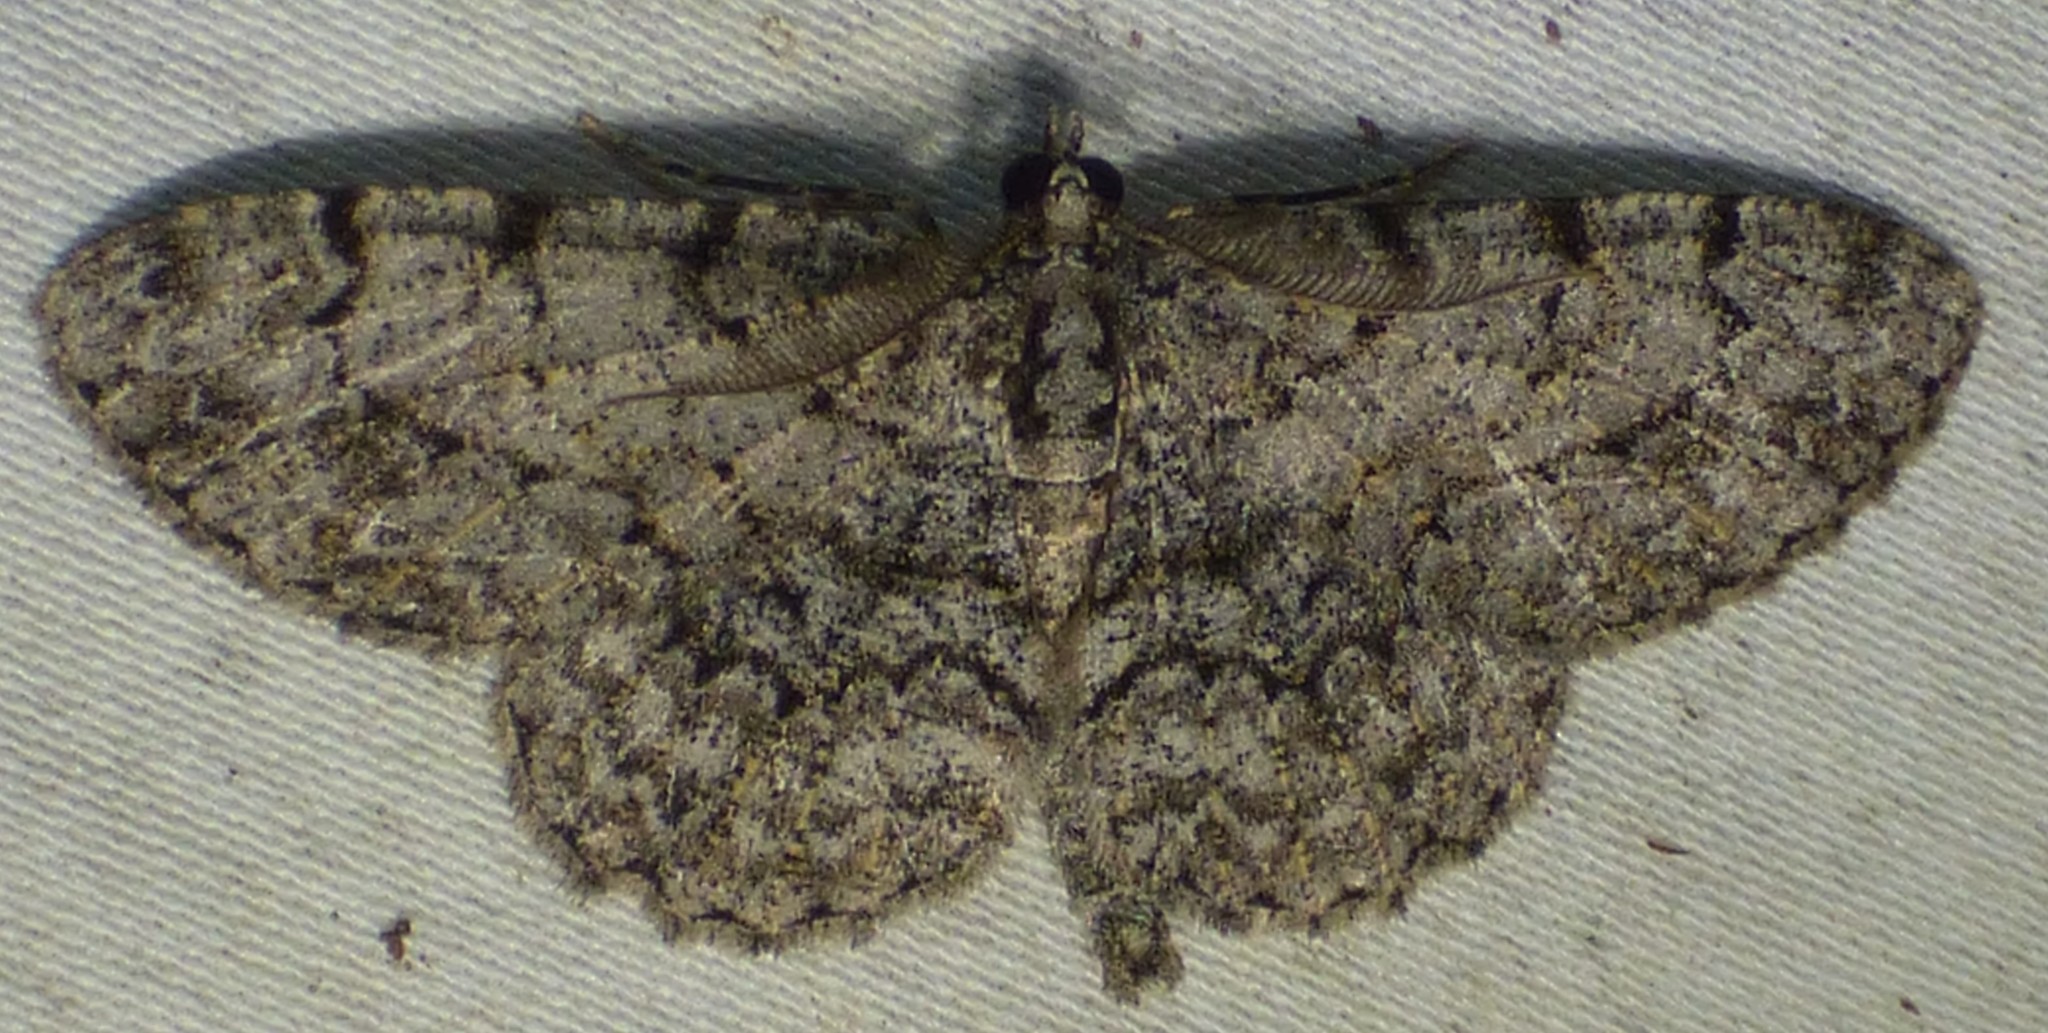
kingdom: Animalia
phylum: Arthropoda
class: Insecta
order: Lepidoptera
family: Geometridae
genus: Protoboarmia
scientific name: Protoboarmia porcelaria
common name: Porcelain gray
